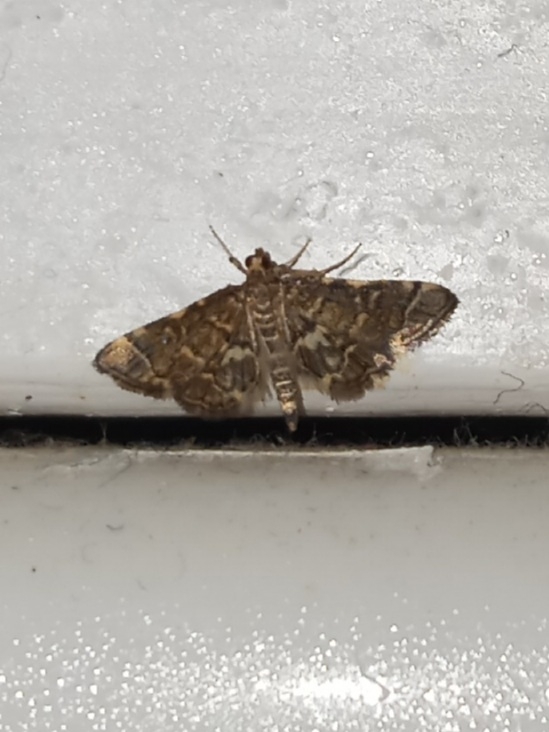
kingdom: Animalia
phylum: Arthropoda
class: Insecta
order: Lepidoptera
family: Crambidae
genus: Anageshna
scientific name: Anageshna primordialis
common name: Yellow-spotted webworm moth
